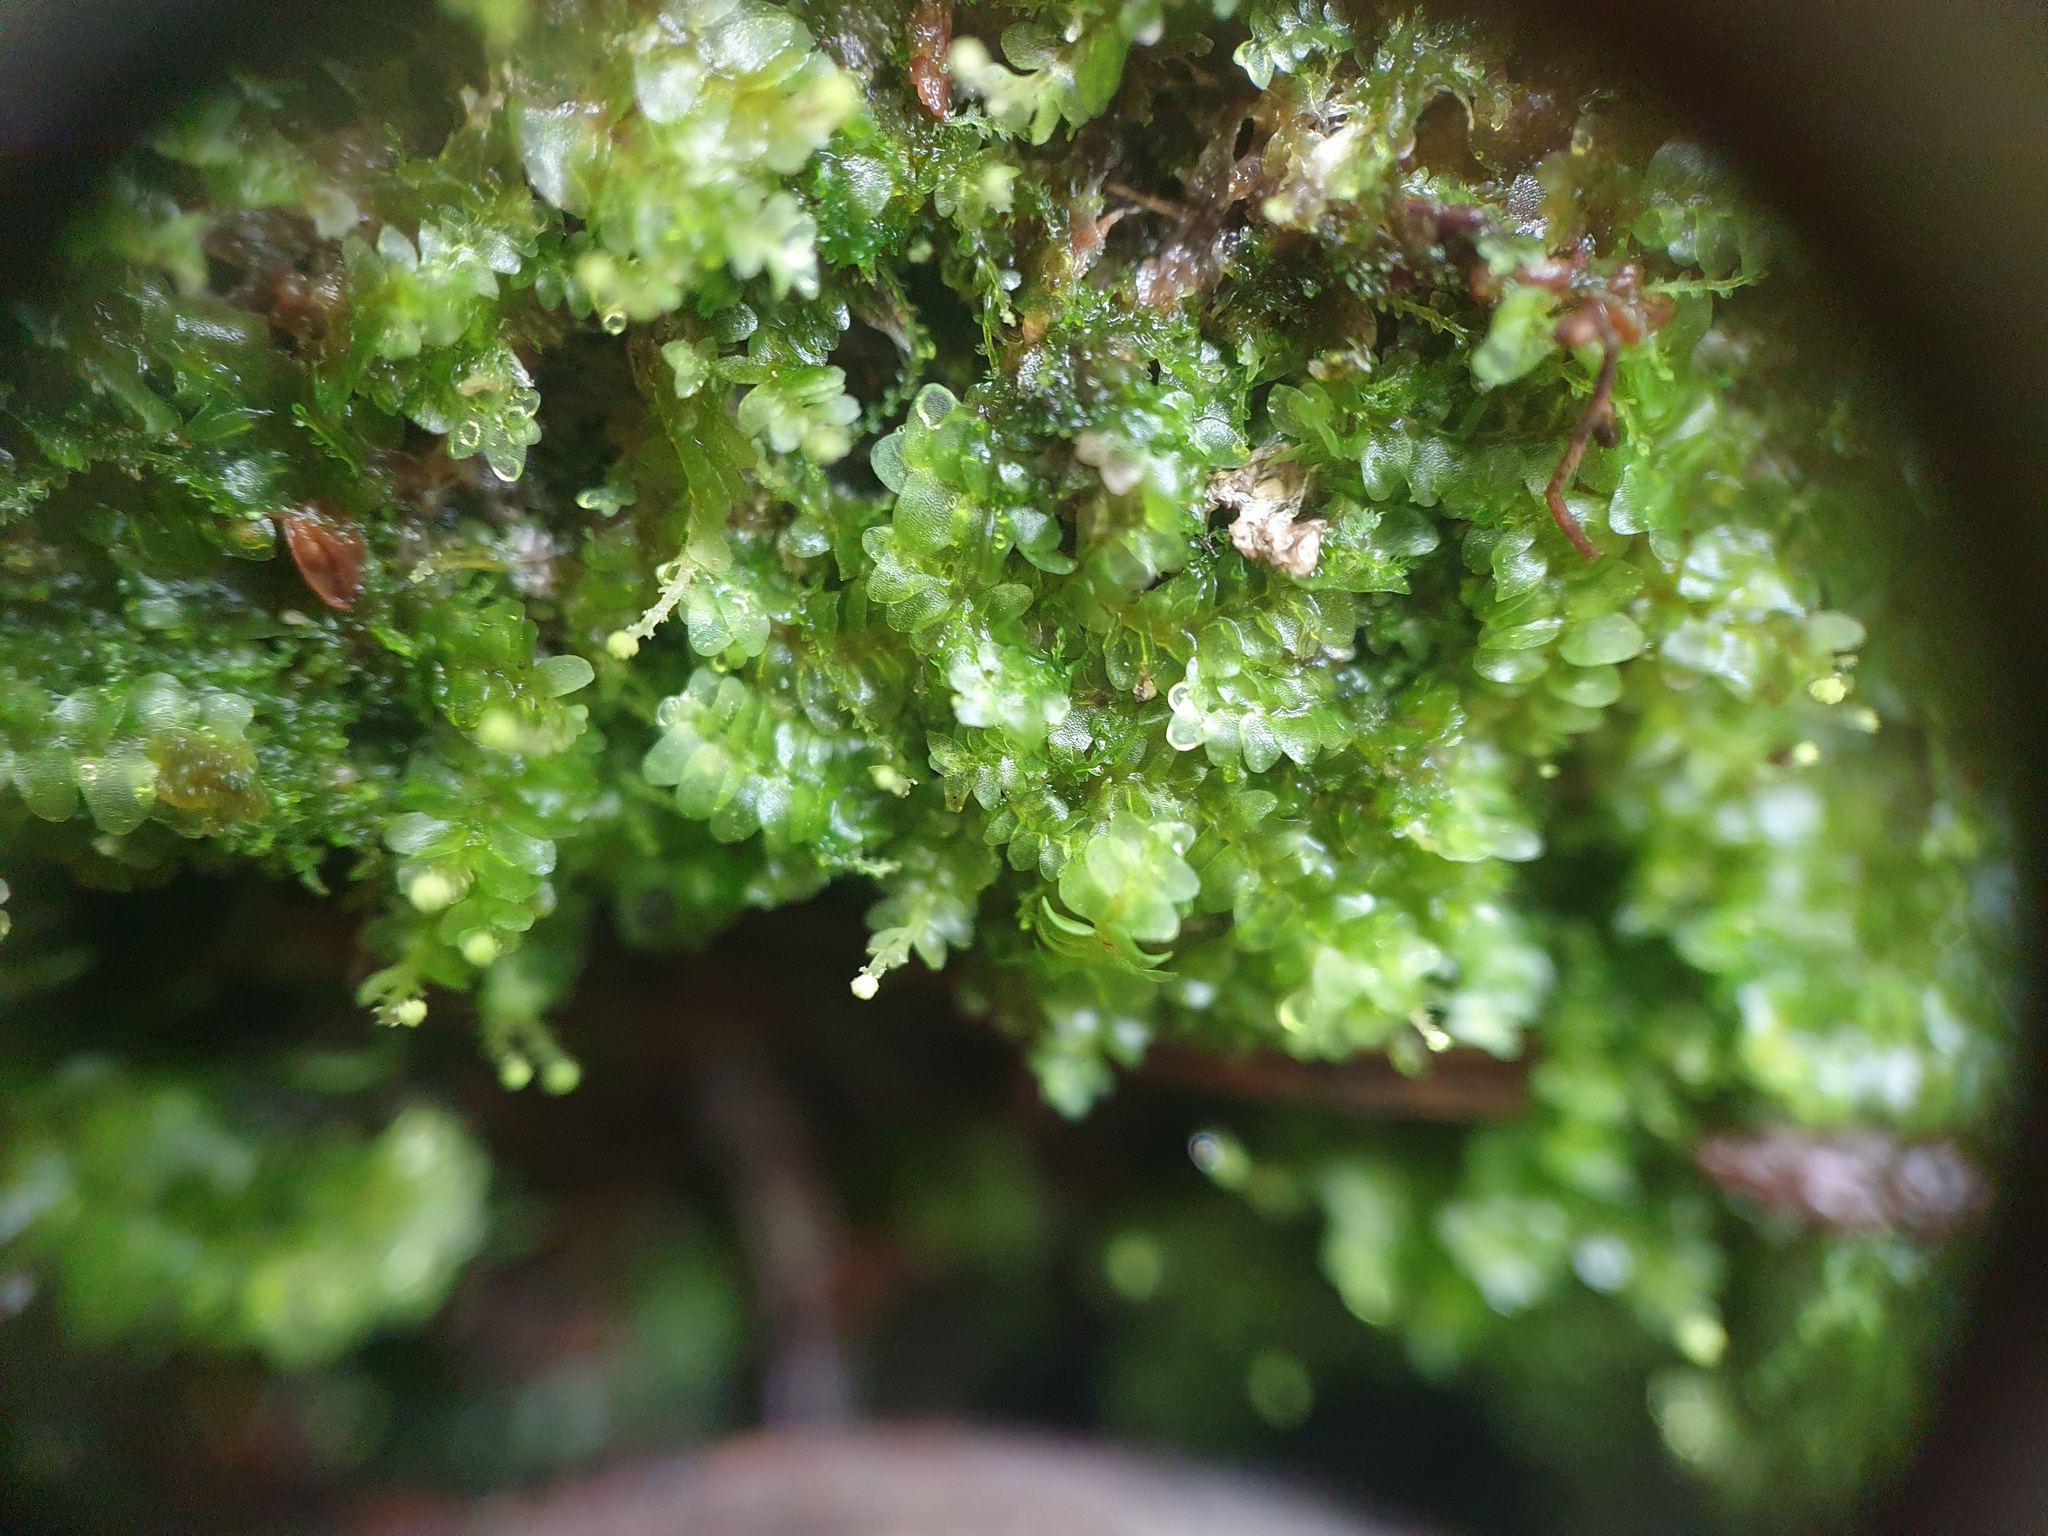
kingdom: Plantae
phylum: Marchantiophyta
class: Jungermanniopsida
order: Jungermanniales
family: Calypogeiaceae
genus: Calypogeia
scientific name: Calypogeia
